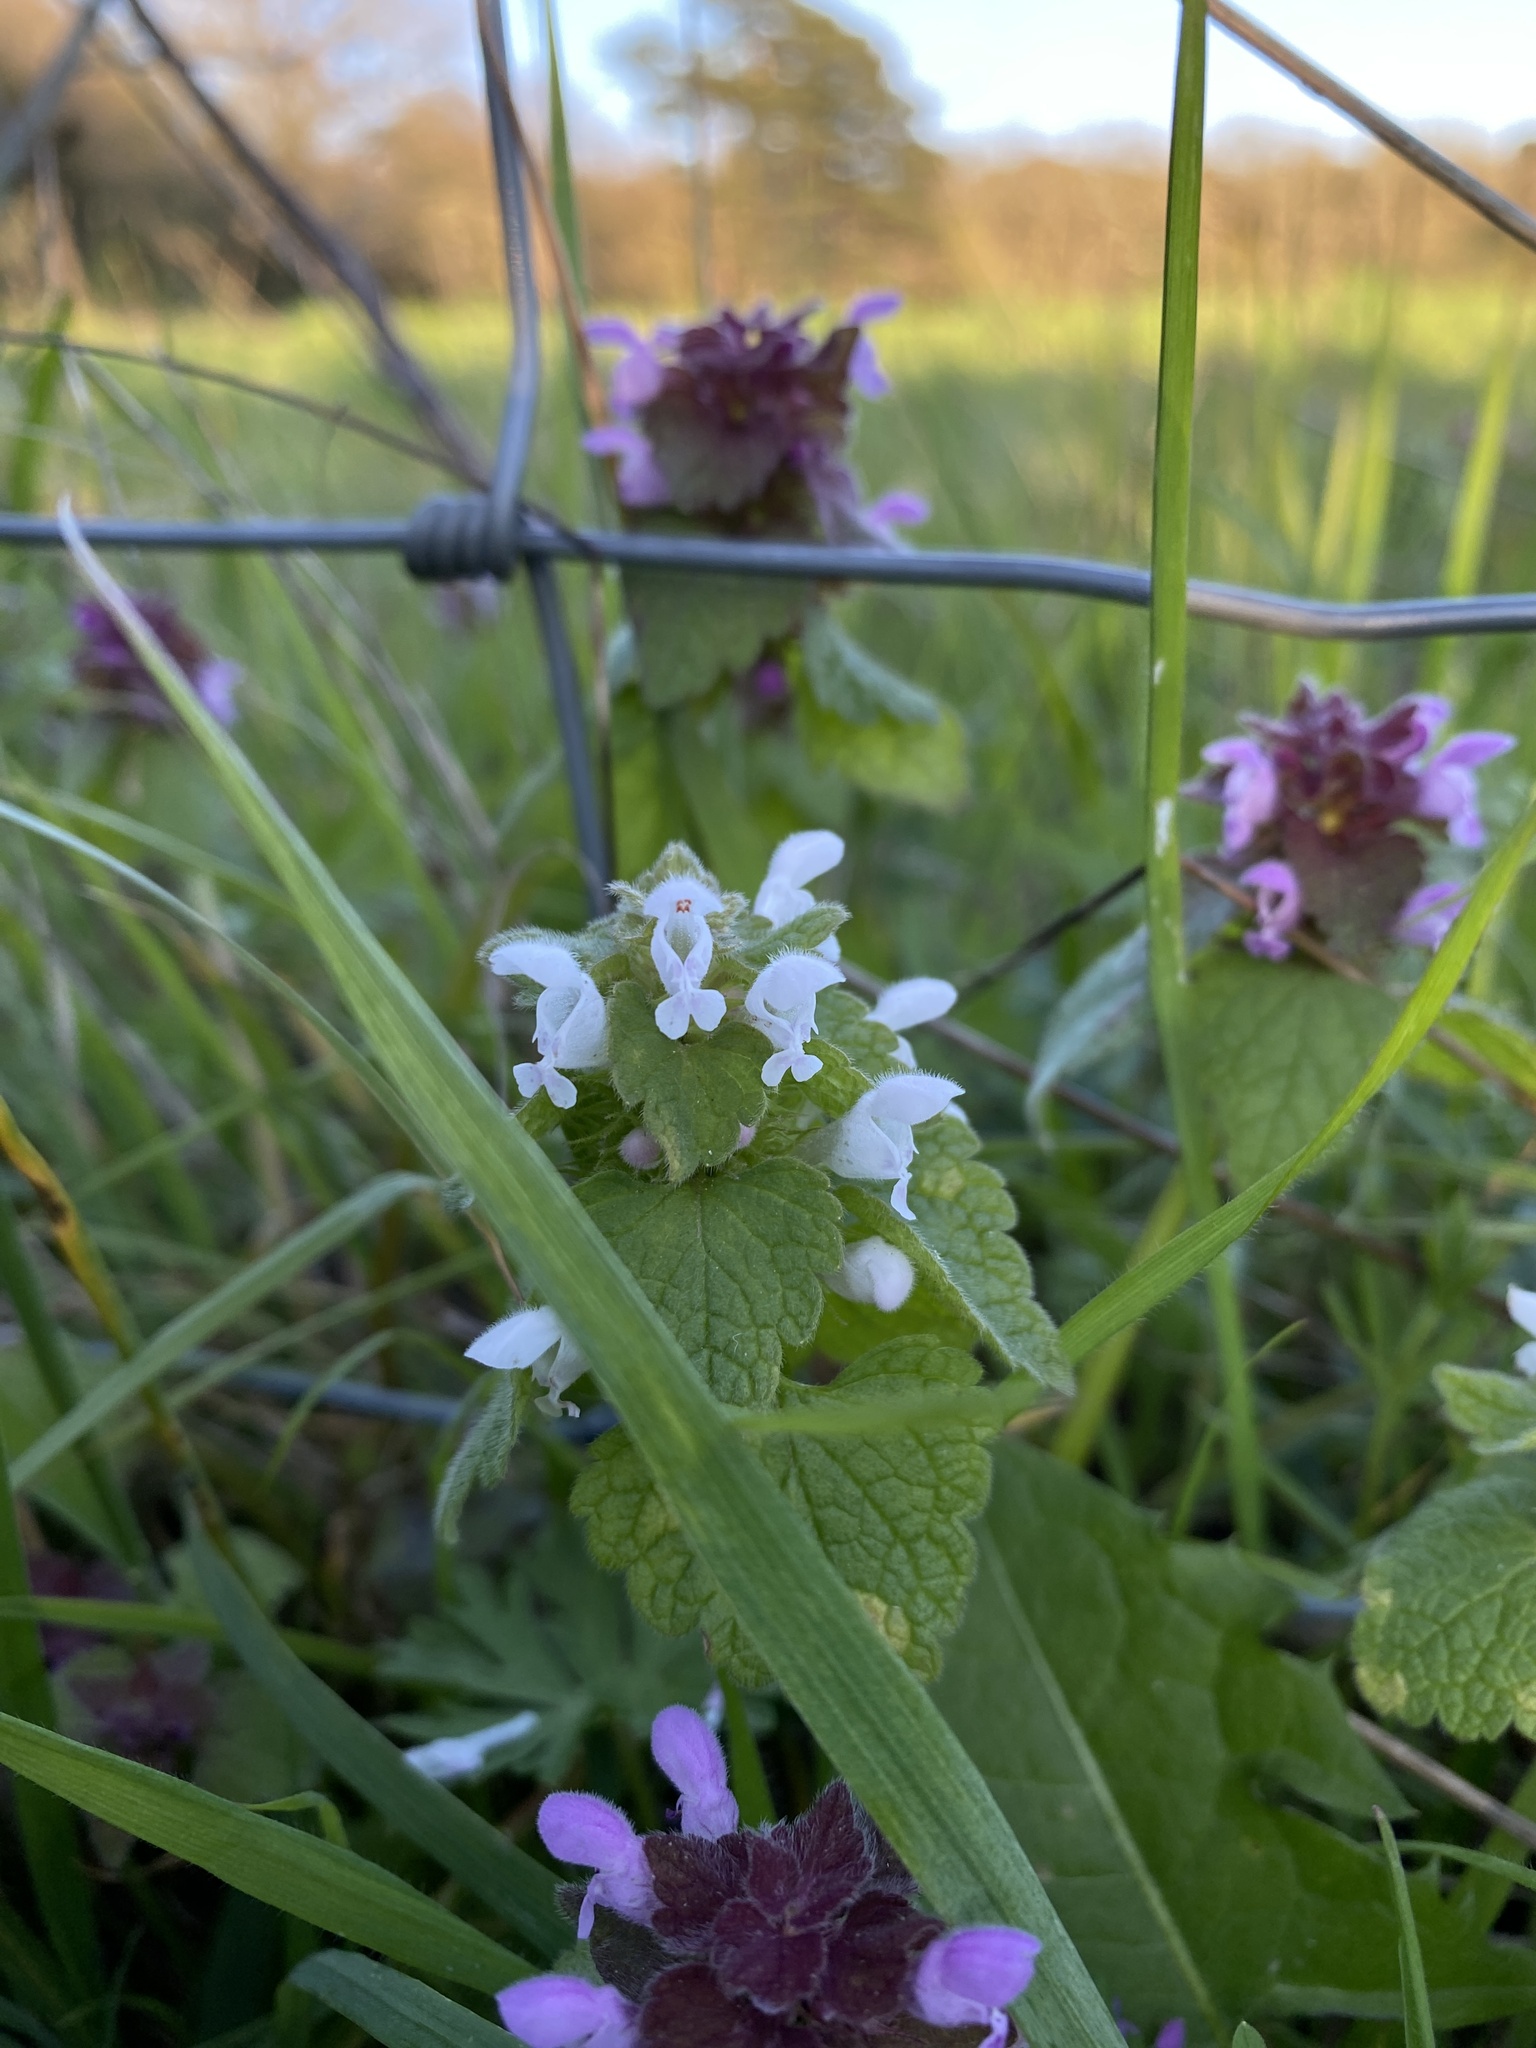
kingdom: Plantae
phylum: Tracheophyta
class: Magnoliopsida
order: Lamiales
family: Lamiaceae
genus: Lamium
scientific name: Lamium purpureum
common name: Red dead-nettle
